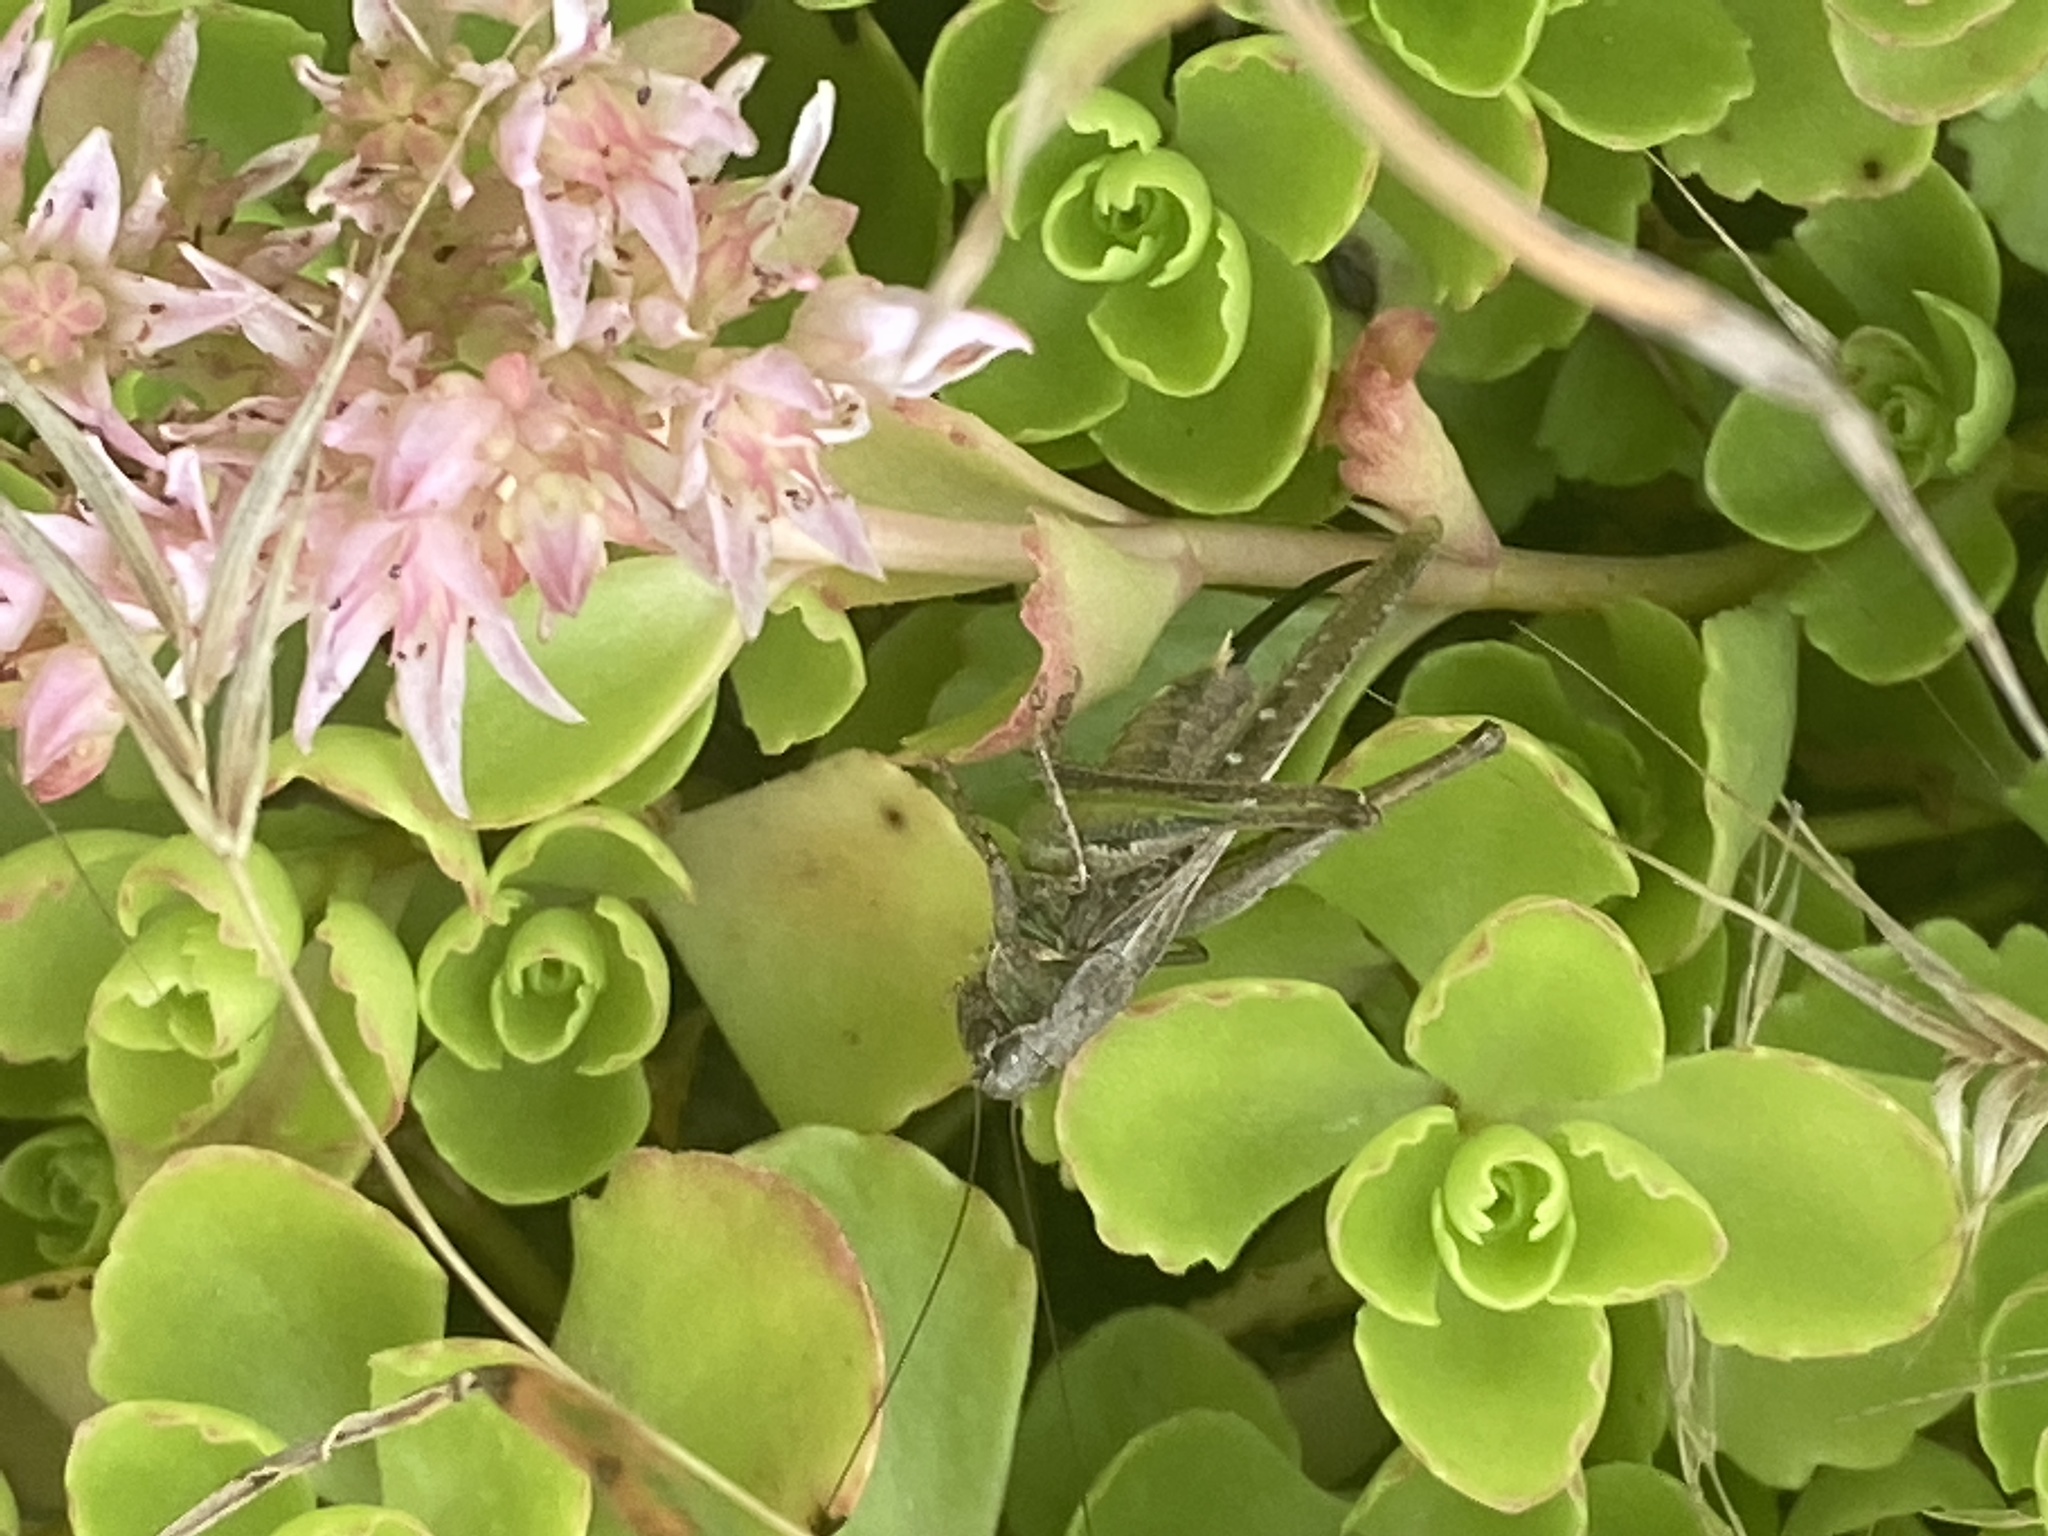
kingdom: Animalia
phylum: Arthropoda
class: Insecta
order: Orthoptera
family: Tettigoniidae
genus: Platycleis
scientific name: Platycleis albopunctata
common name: Grey bush-cricket
